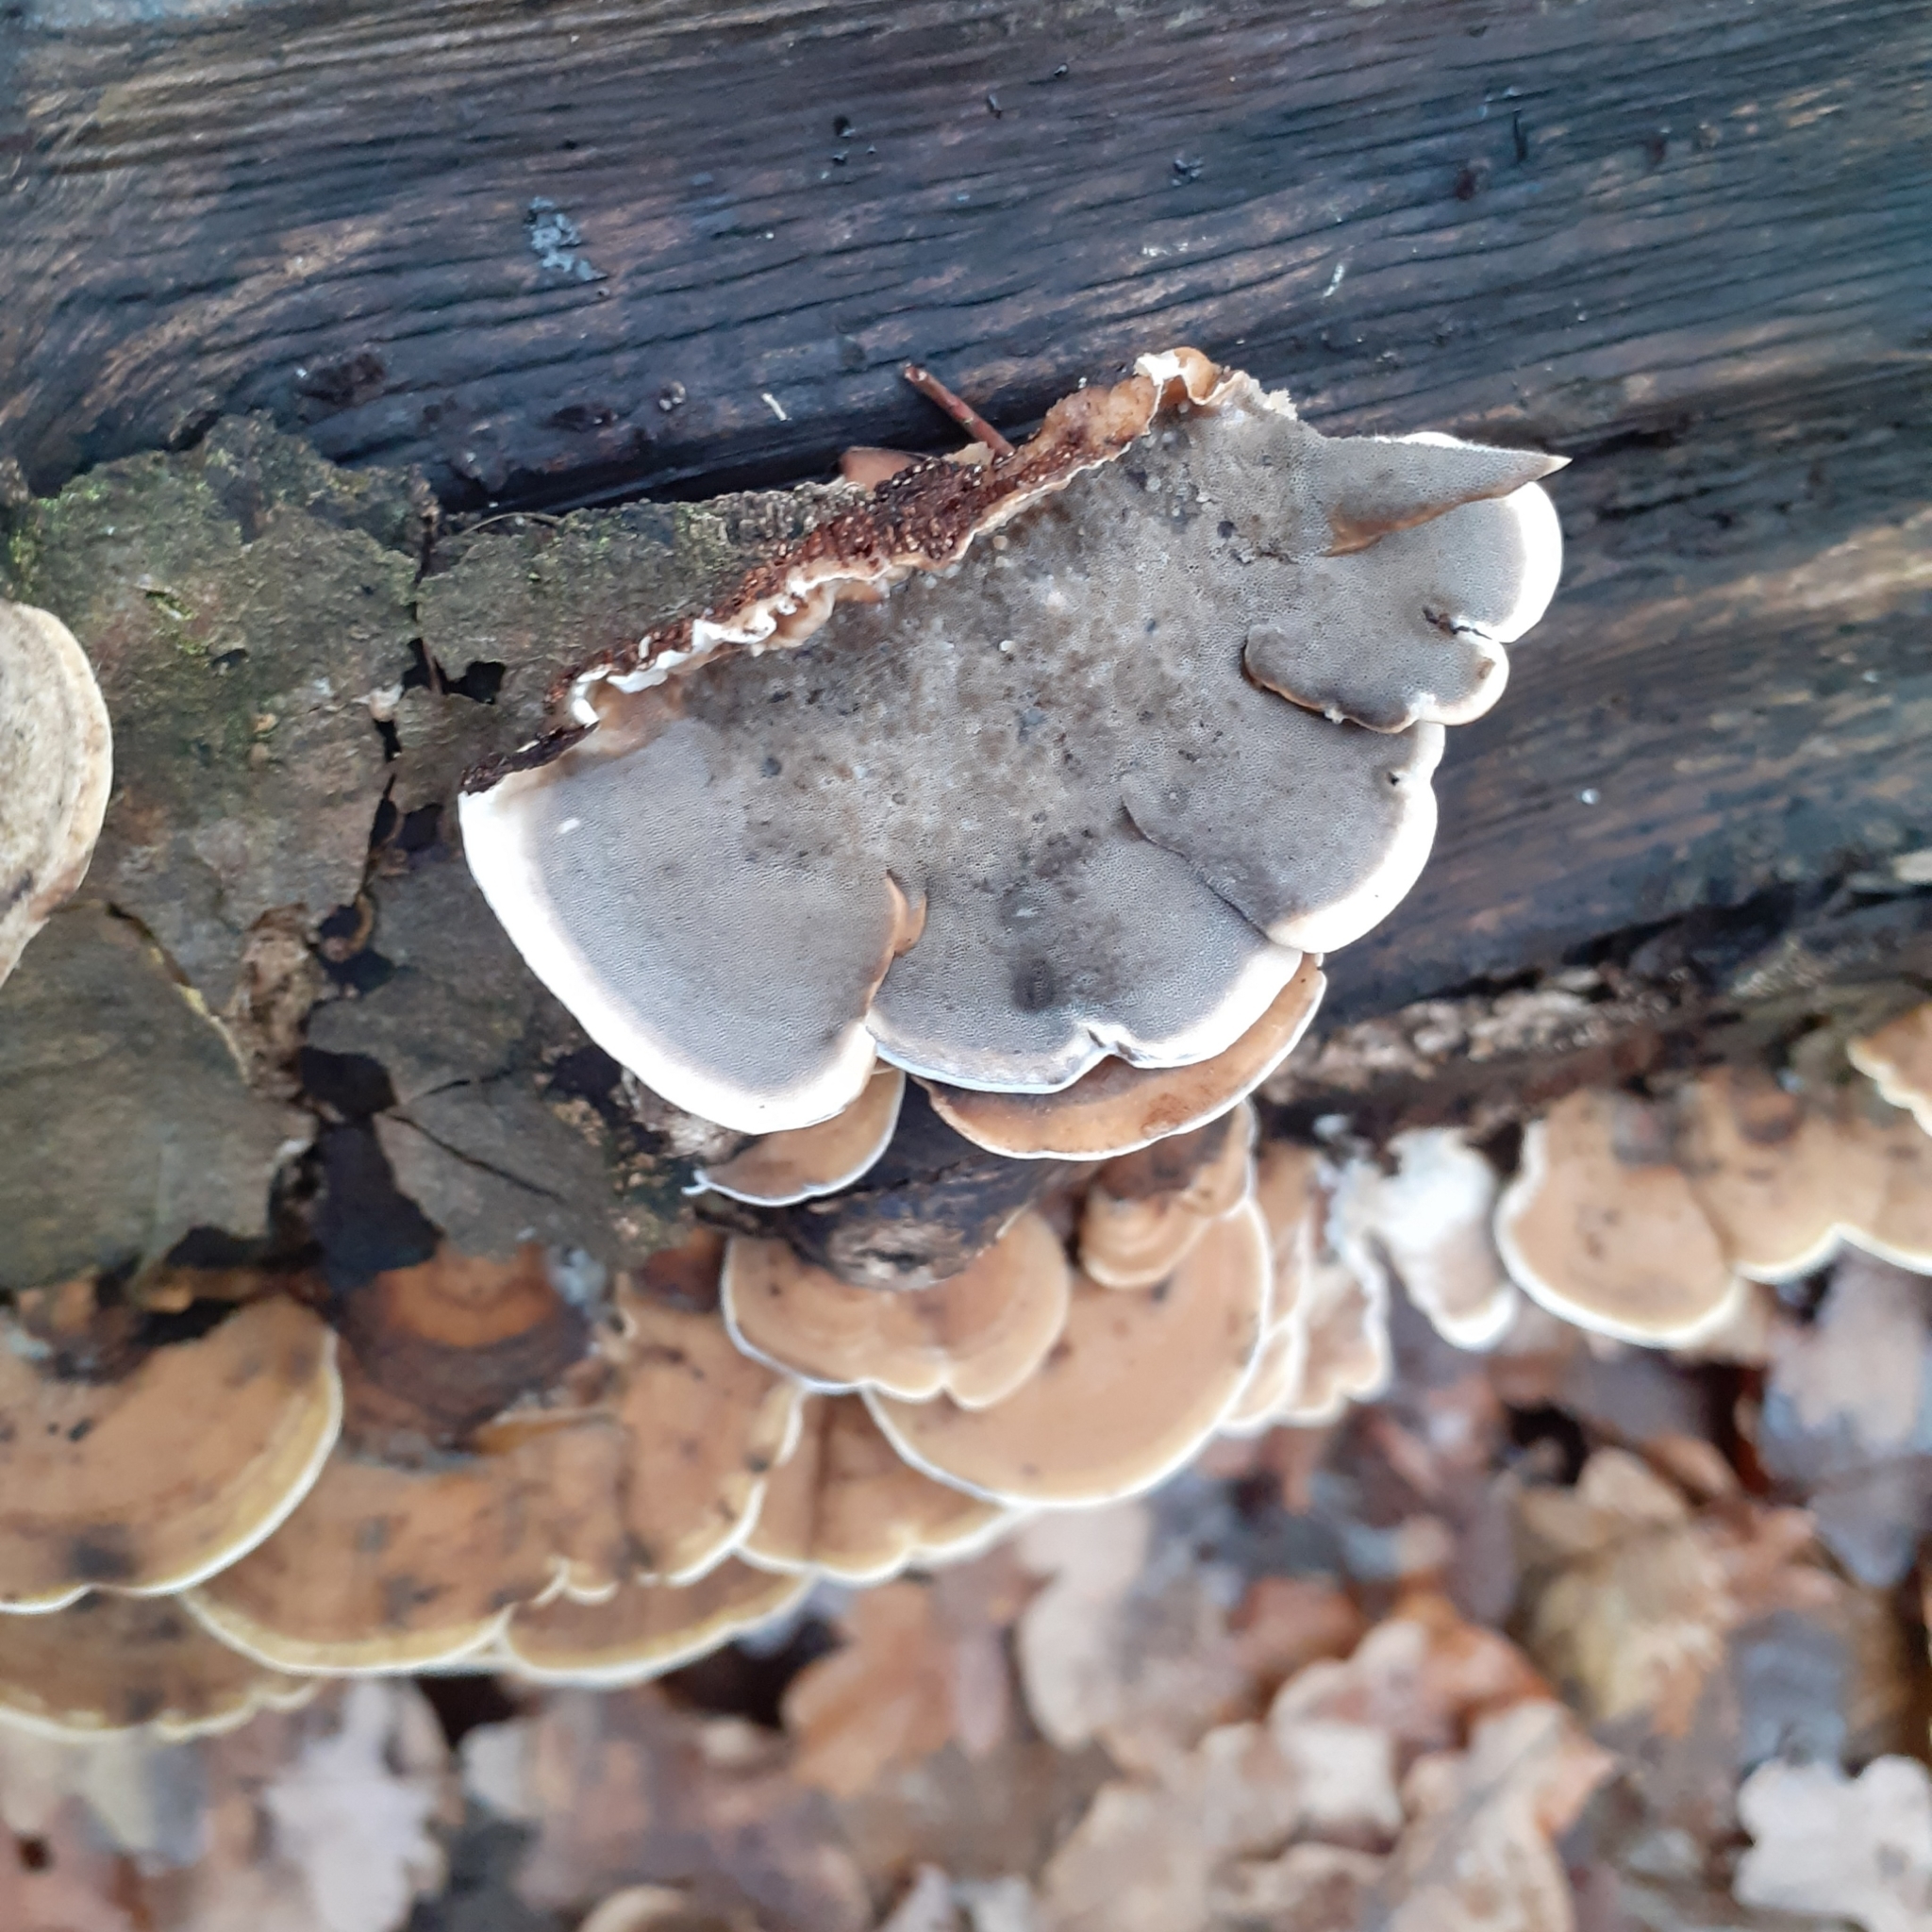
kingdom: Fungi
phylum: Basidiomycota
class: Agaricomycetes
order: Polyporales
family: Phanerochaetaceae
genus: Bjerkandera
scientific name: Bjerkandera adusta
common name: Smoky bracket
